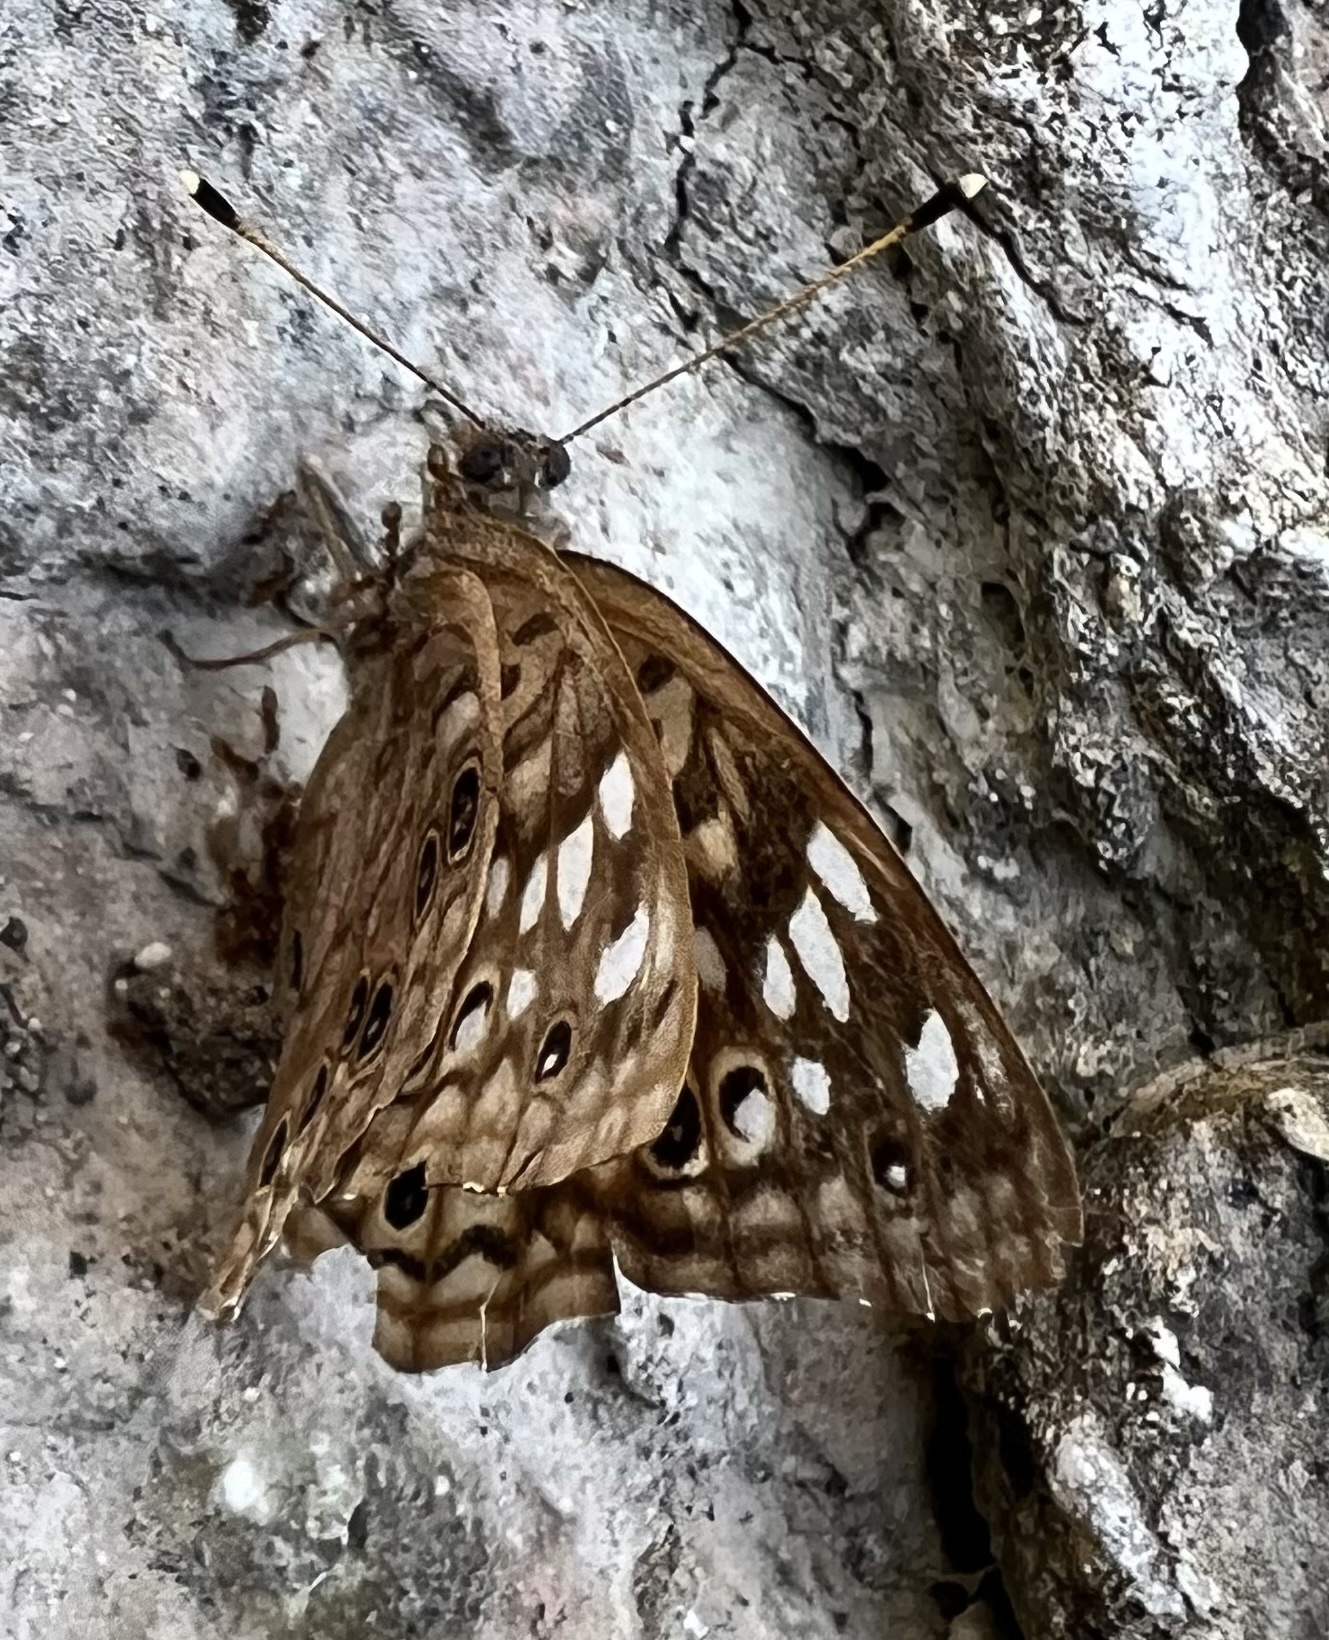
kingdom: Animalia
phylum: Arthropoda
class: Insecta
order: Lepidoptera
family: Nymphalidae
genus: Asterocampa
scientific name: Asterocampa celtis
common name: Hackberry emperor
